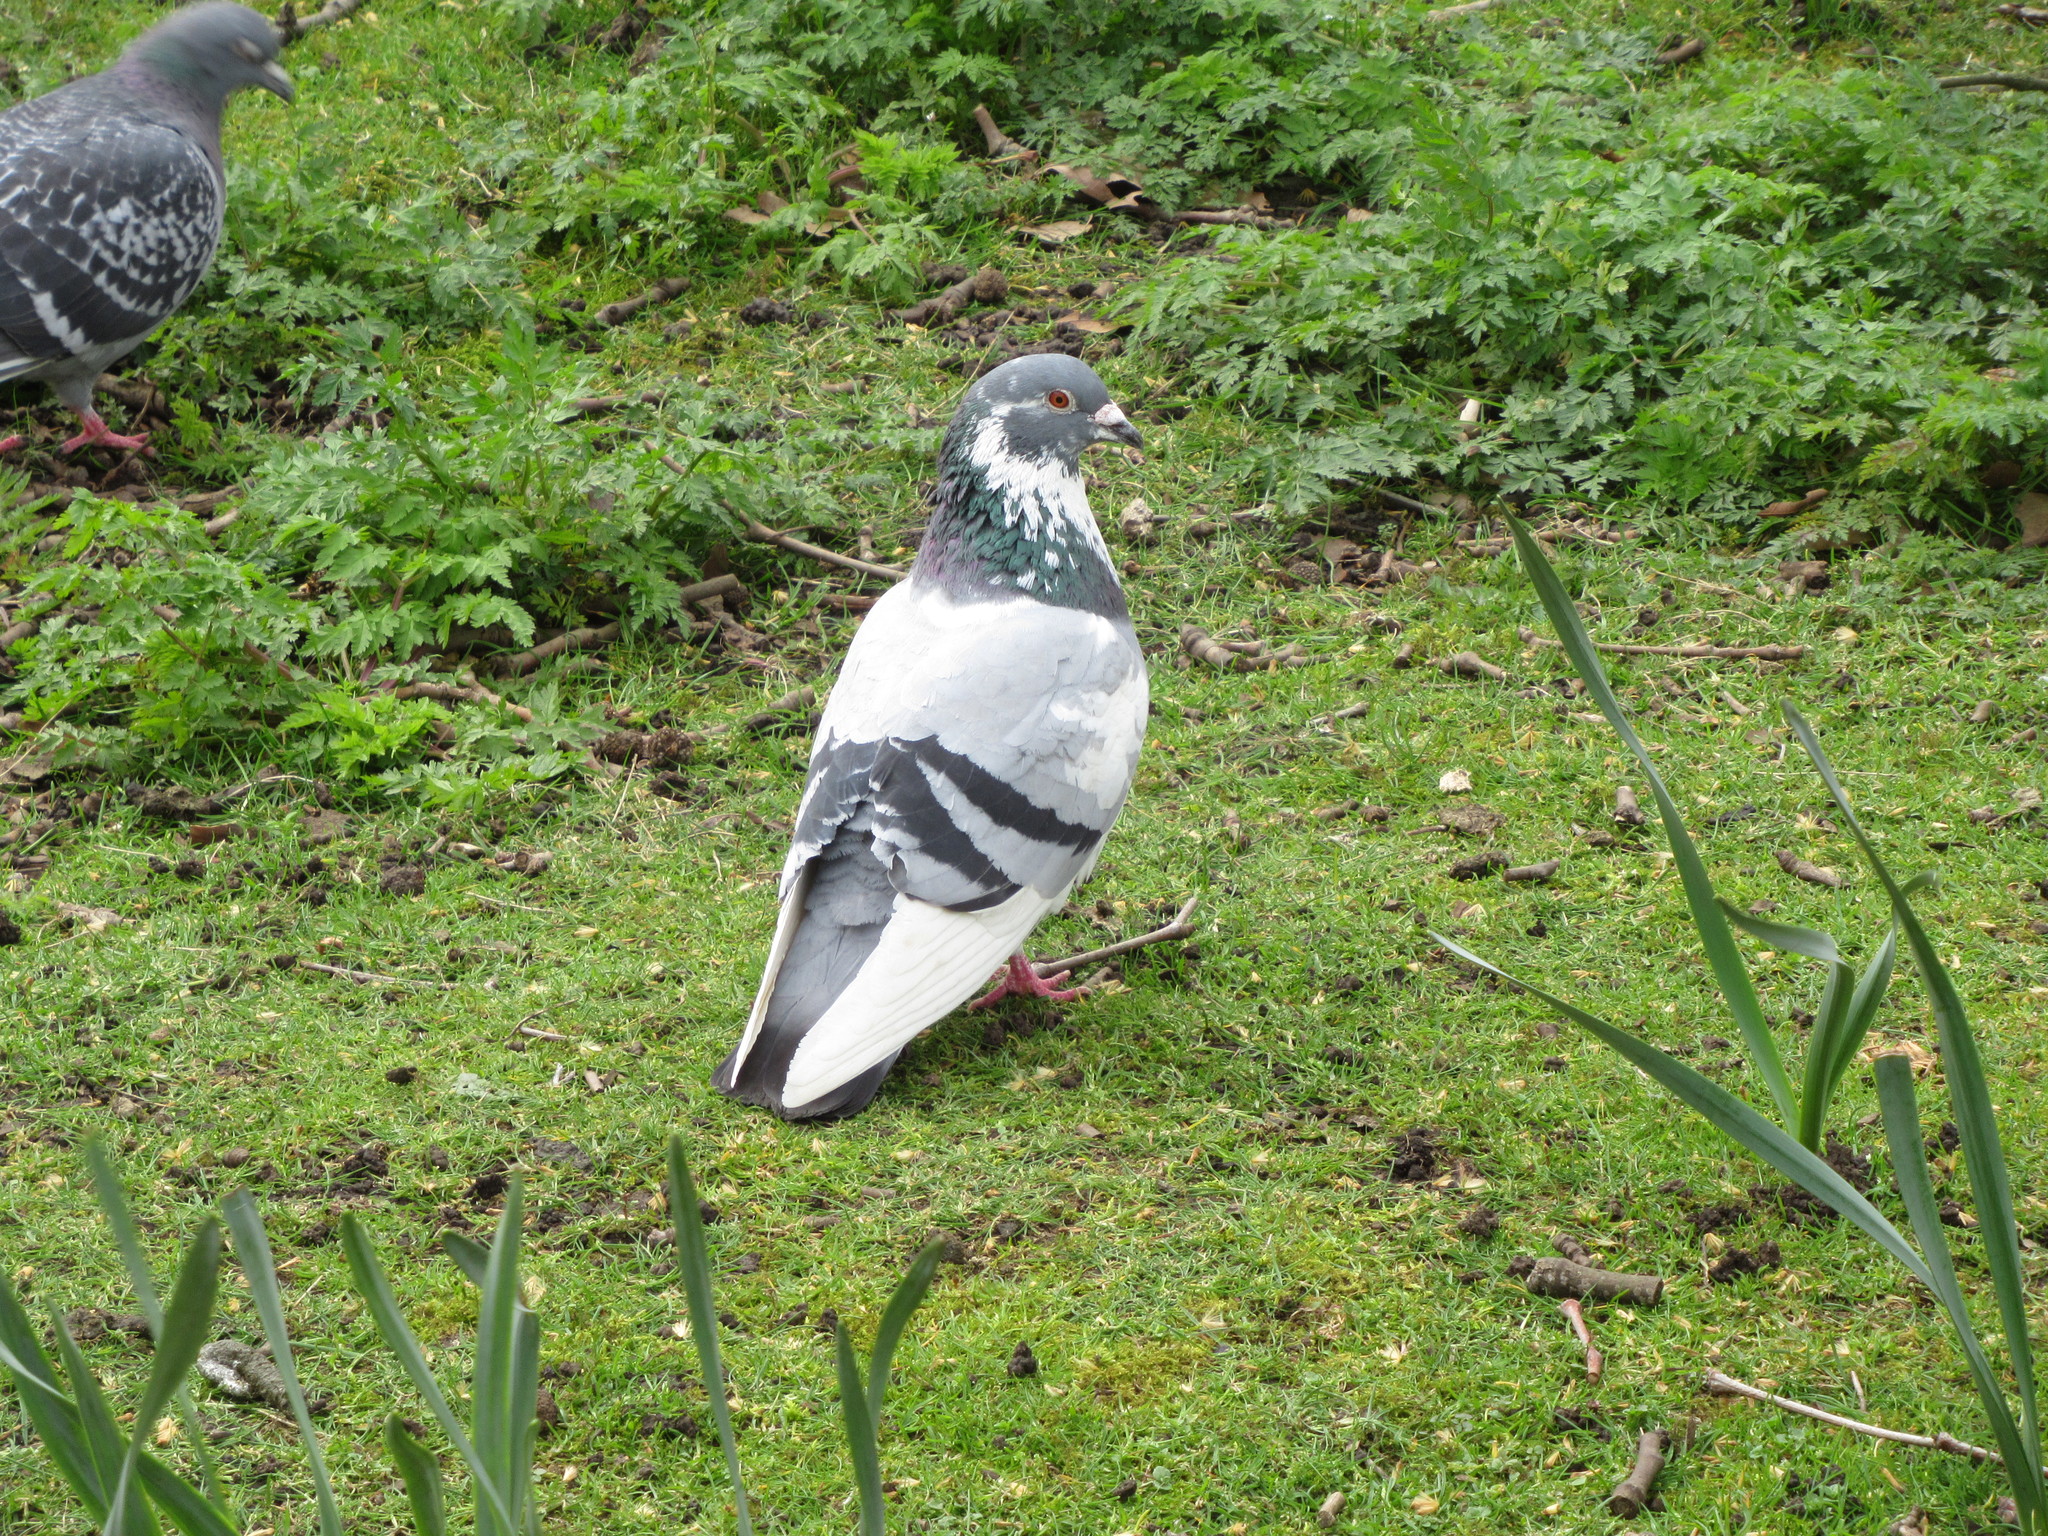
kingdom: Animalia
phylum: Chordata
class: Aves
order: Columbiformes
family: Columbidae
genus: Columba
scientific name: Columba livia
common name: Rock pigeon
